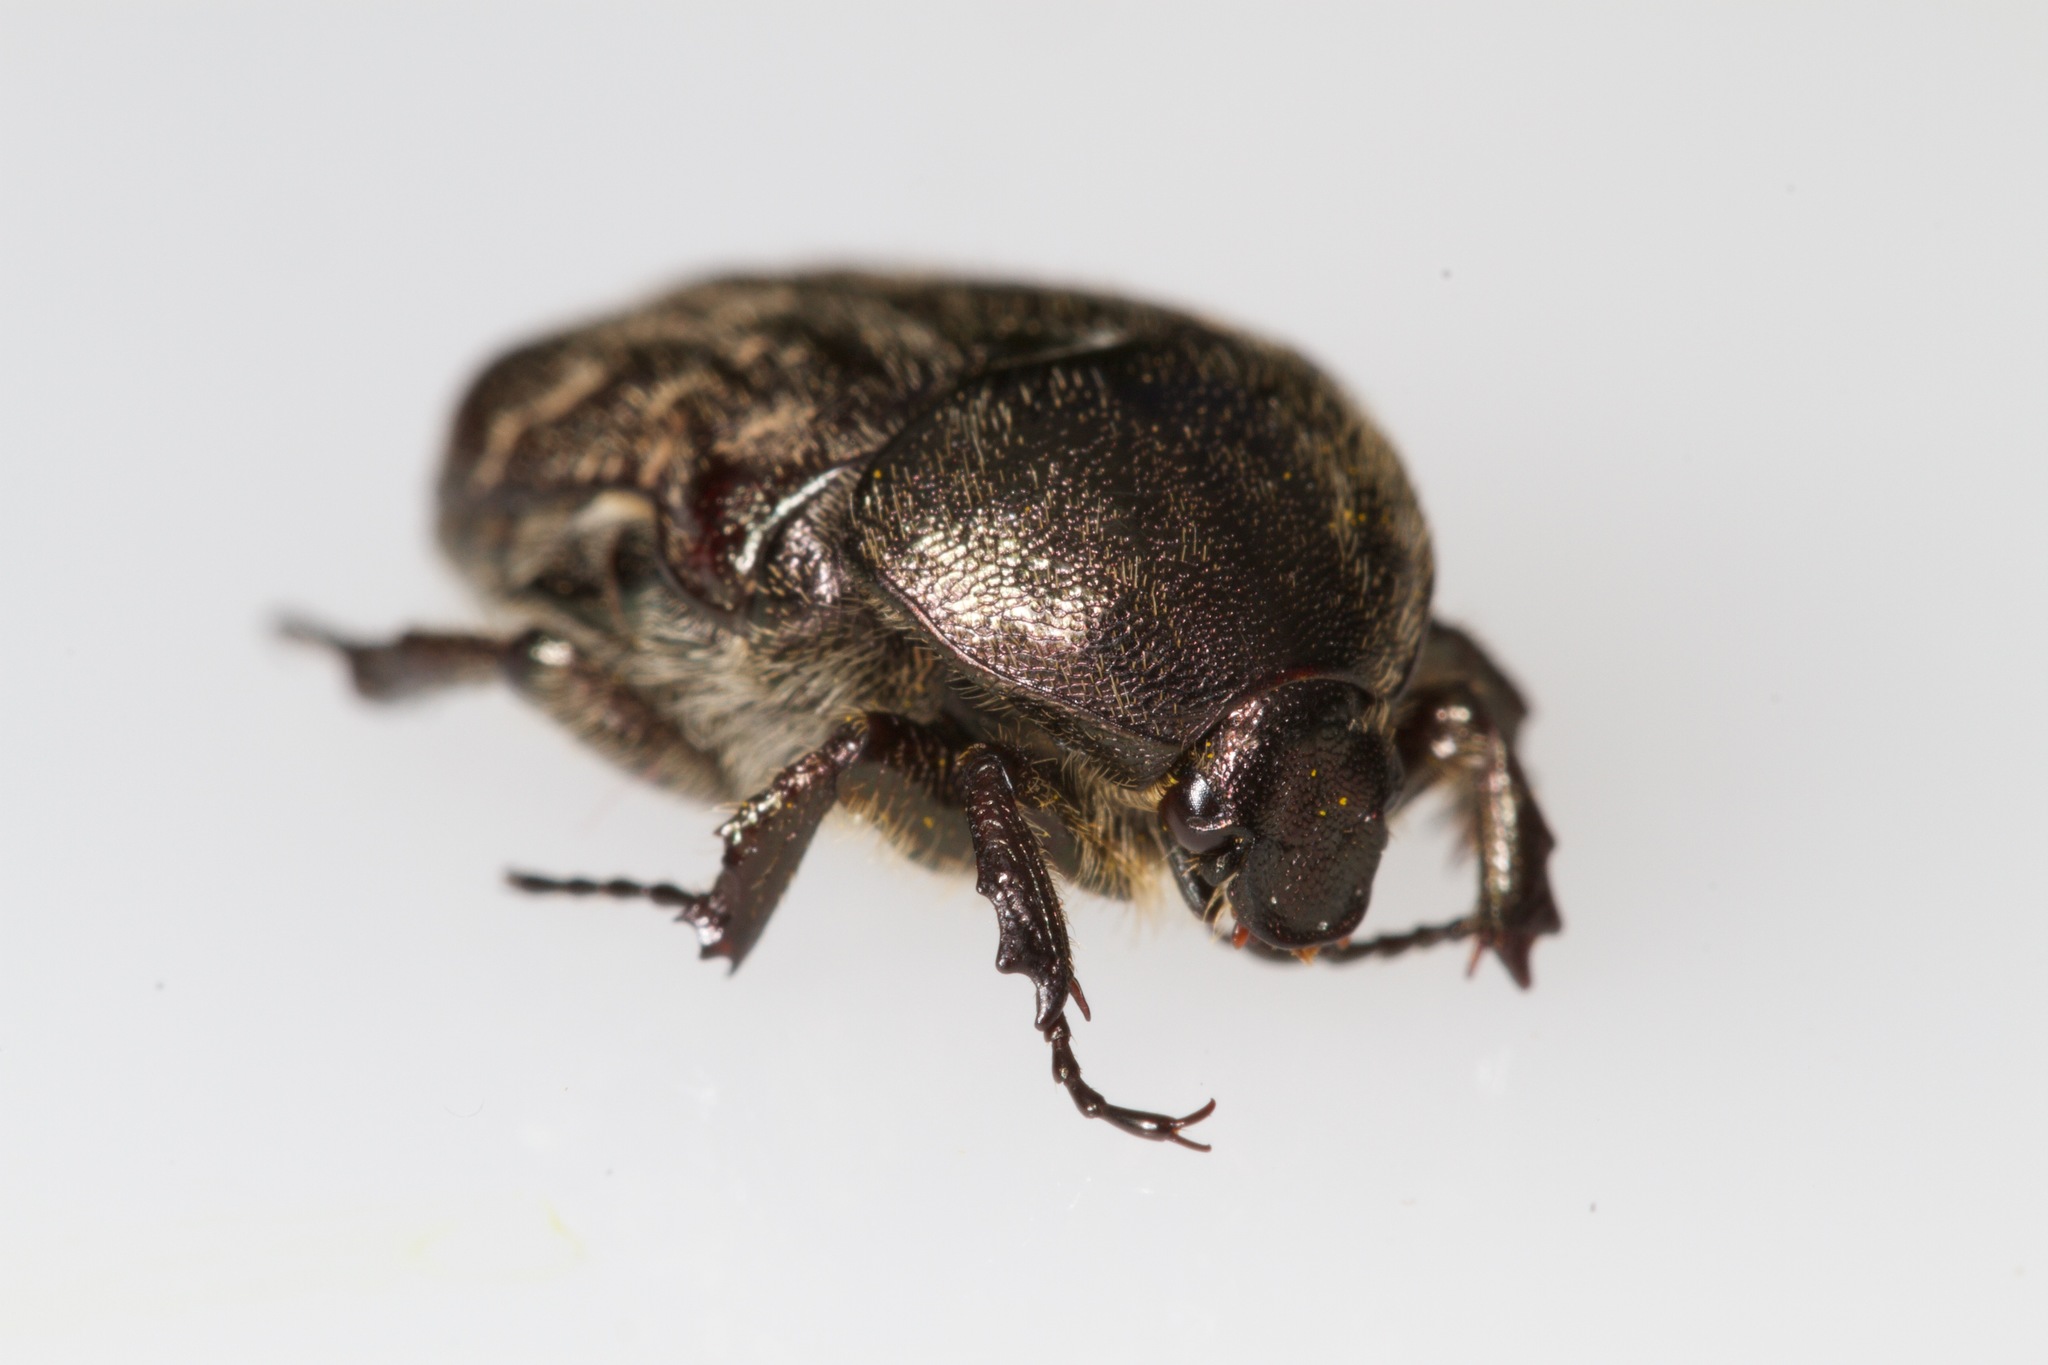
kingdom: Animalia
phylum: Arthropoda
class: Insecta
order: Coleoptera
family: Scarabaeidae
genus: Euphoria
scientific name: Euphoria sepulcralis
